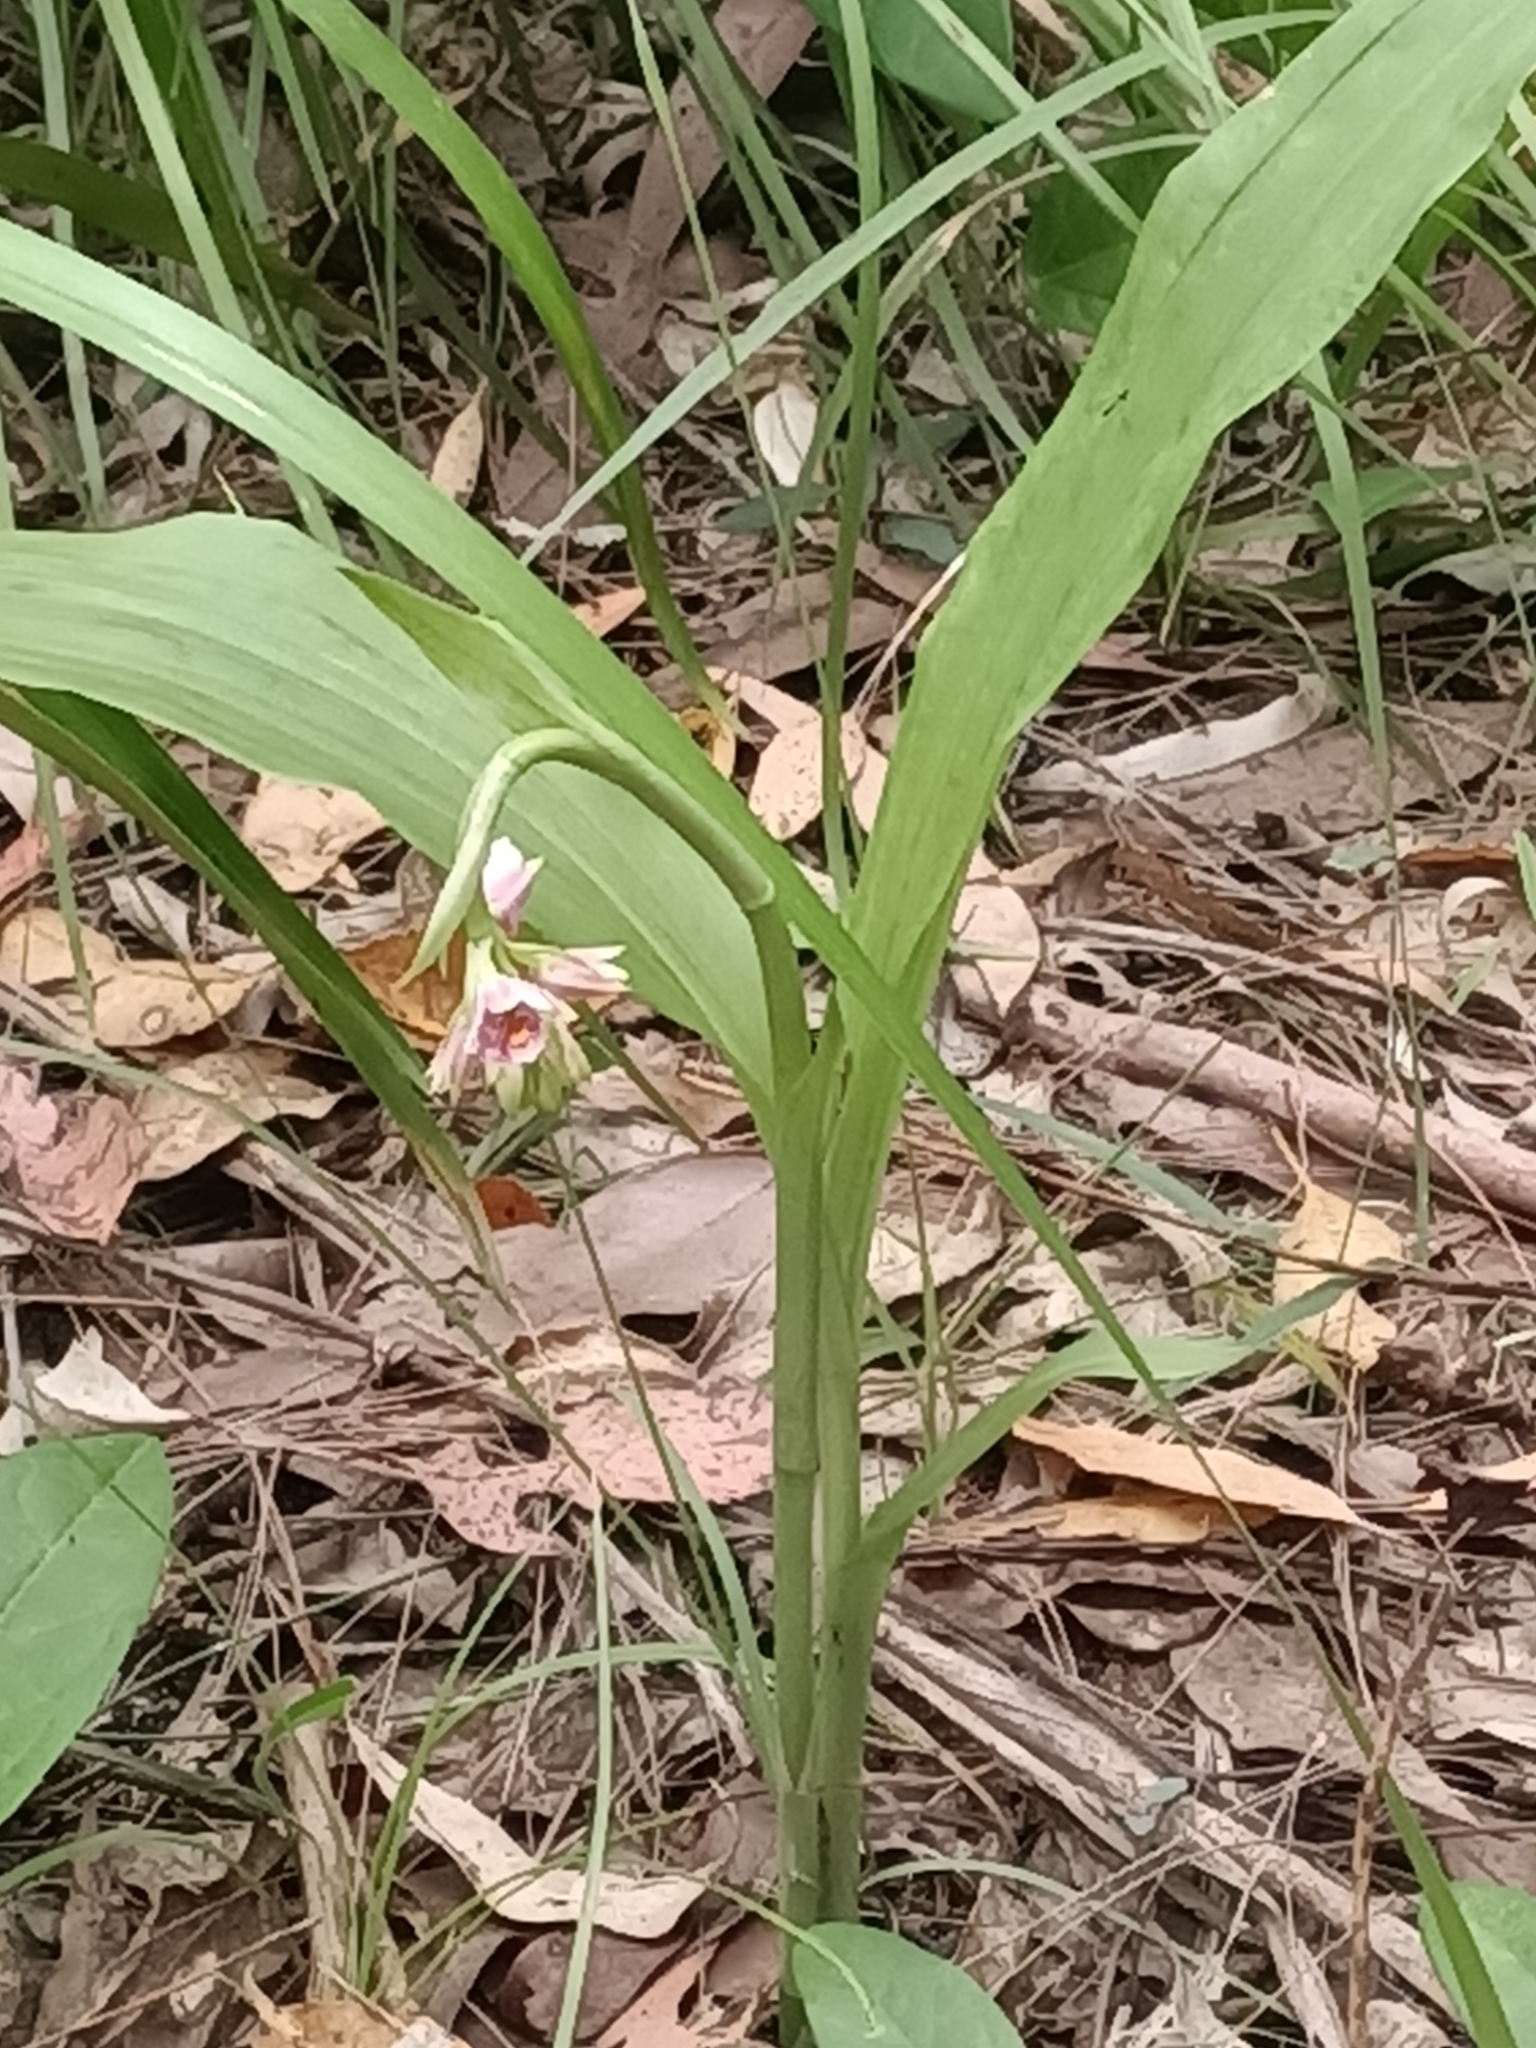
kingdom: Plantae
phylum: Tracheophyta
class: Liliopsida
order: Asparagales
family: Orchidaceae
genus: Eulophia
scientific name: Eulophia cernua
